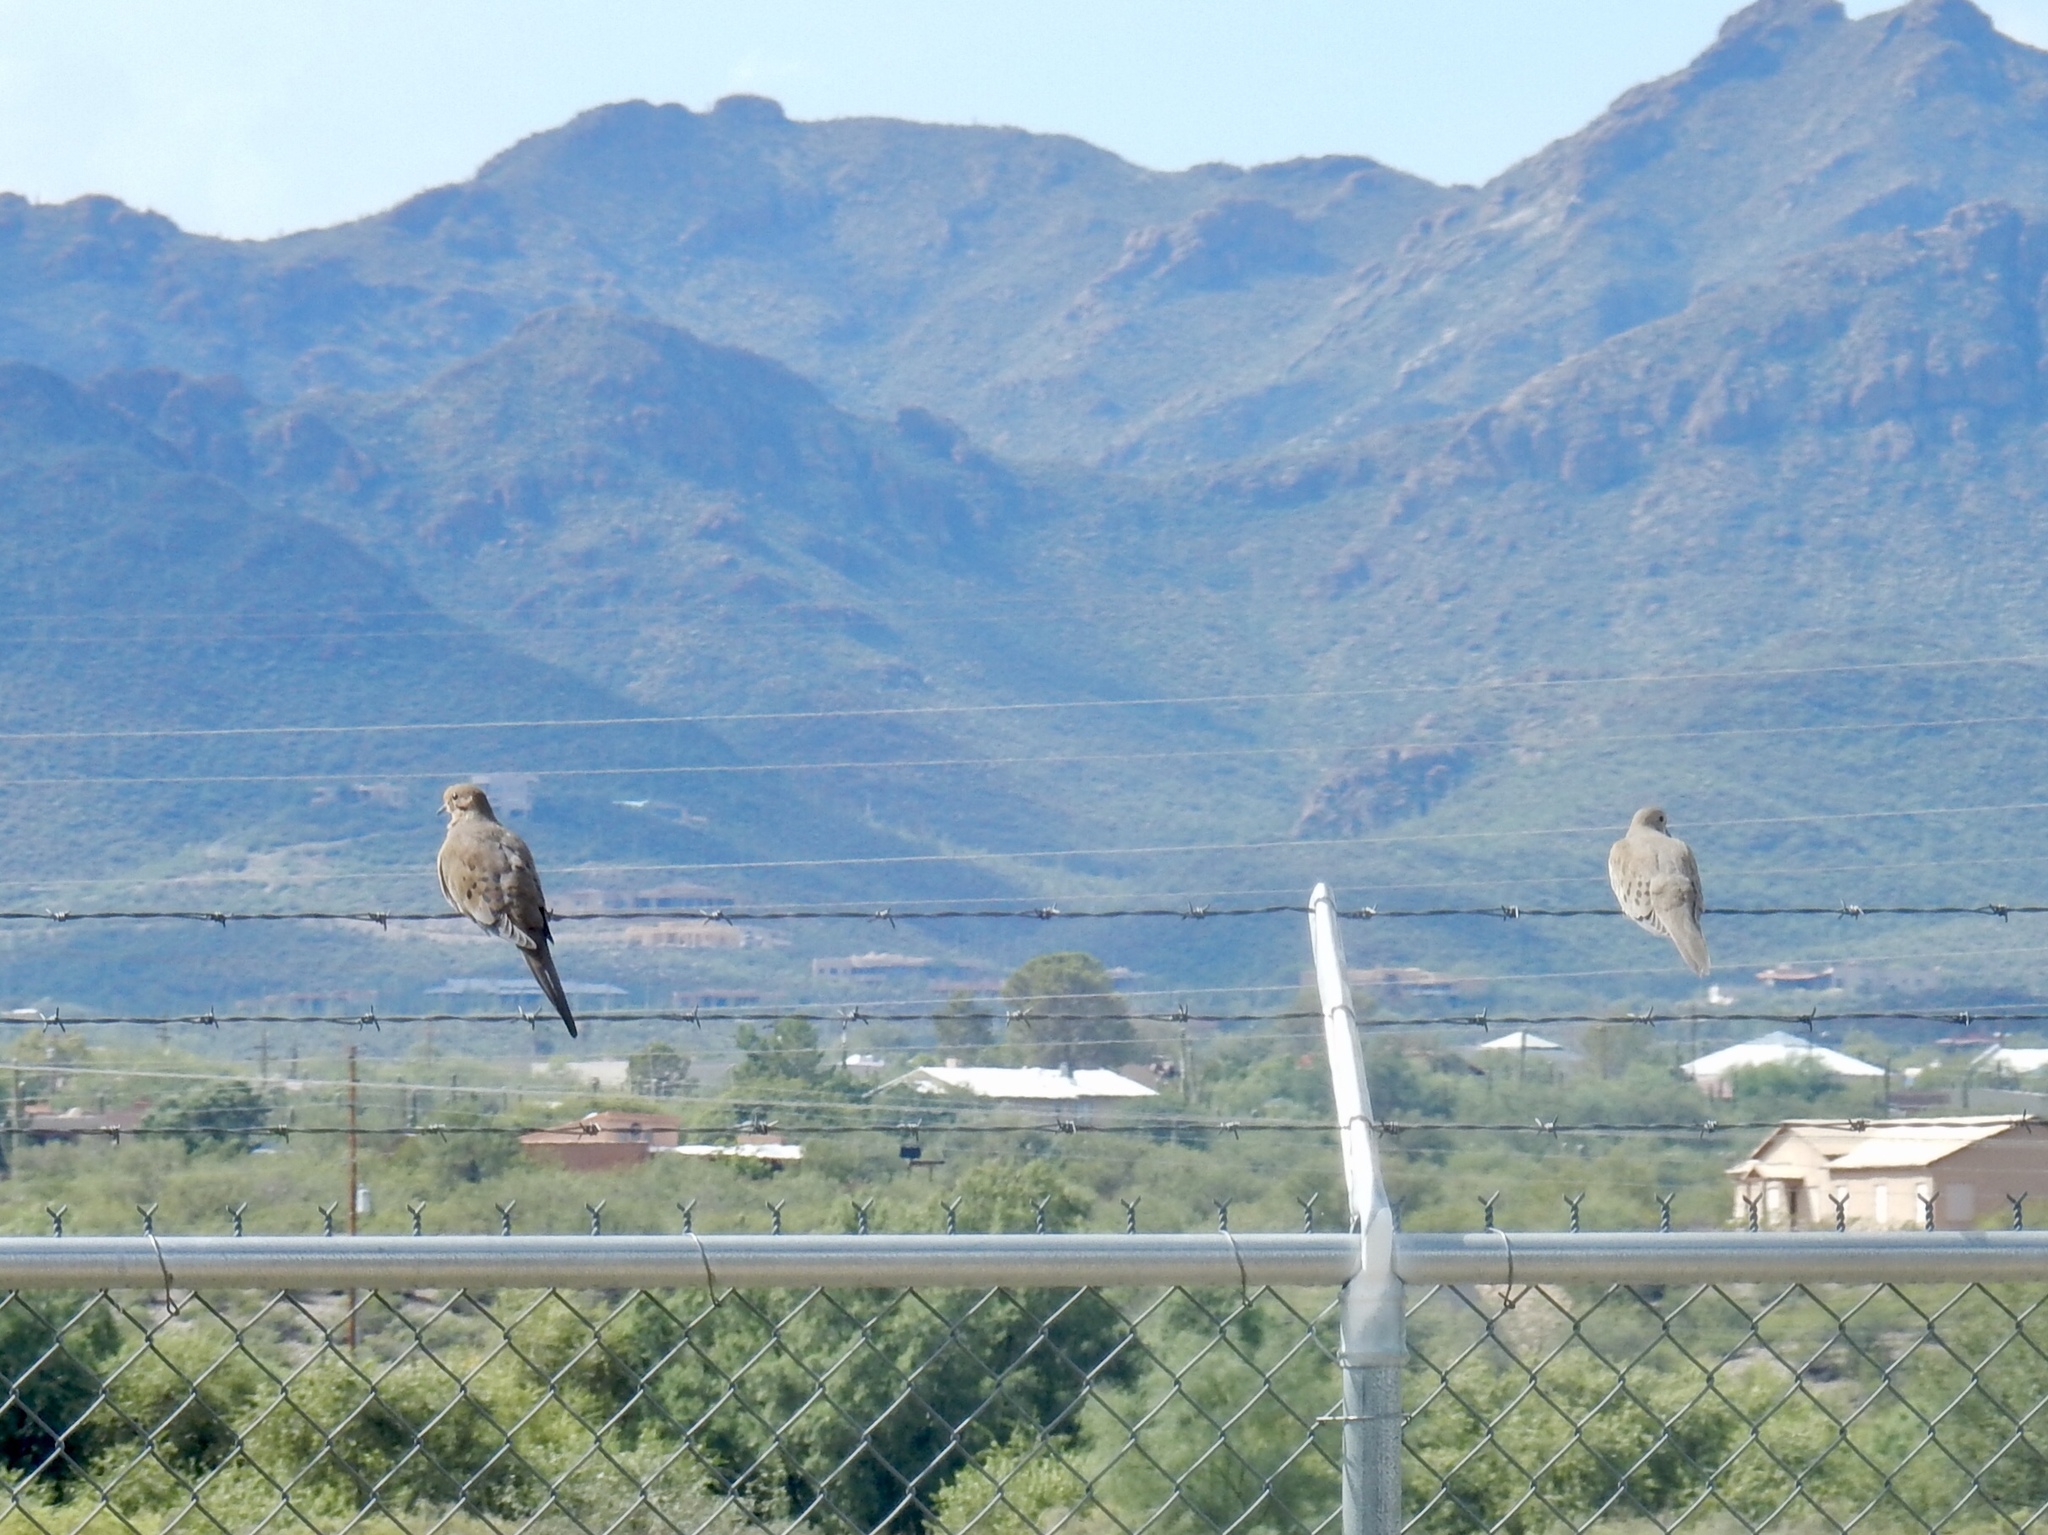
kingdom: Animalia
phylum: Chordata
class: Aves
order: Columbiformes
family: Columbidae
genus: Zenaida
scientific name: Zenaida macroura
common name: Mourning dove
